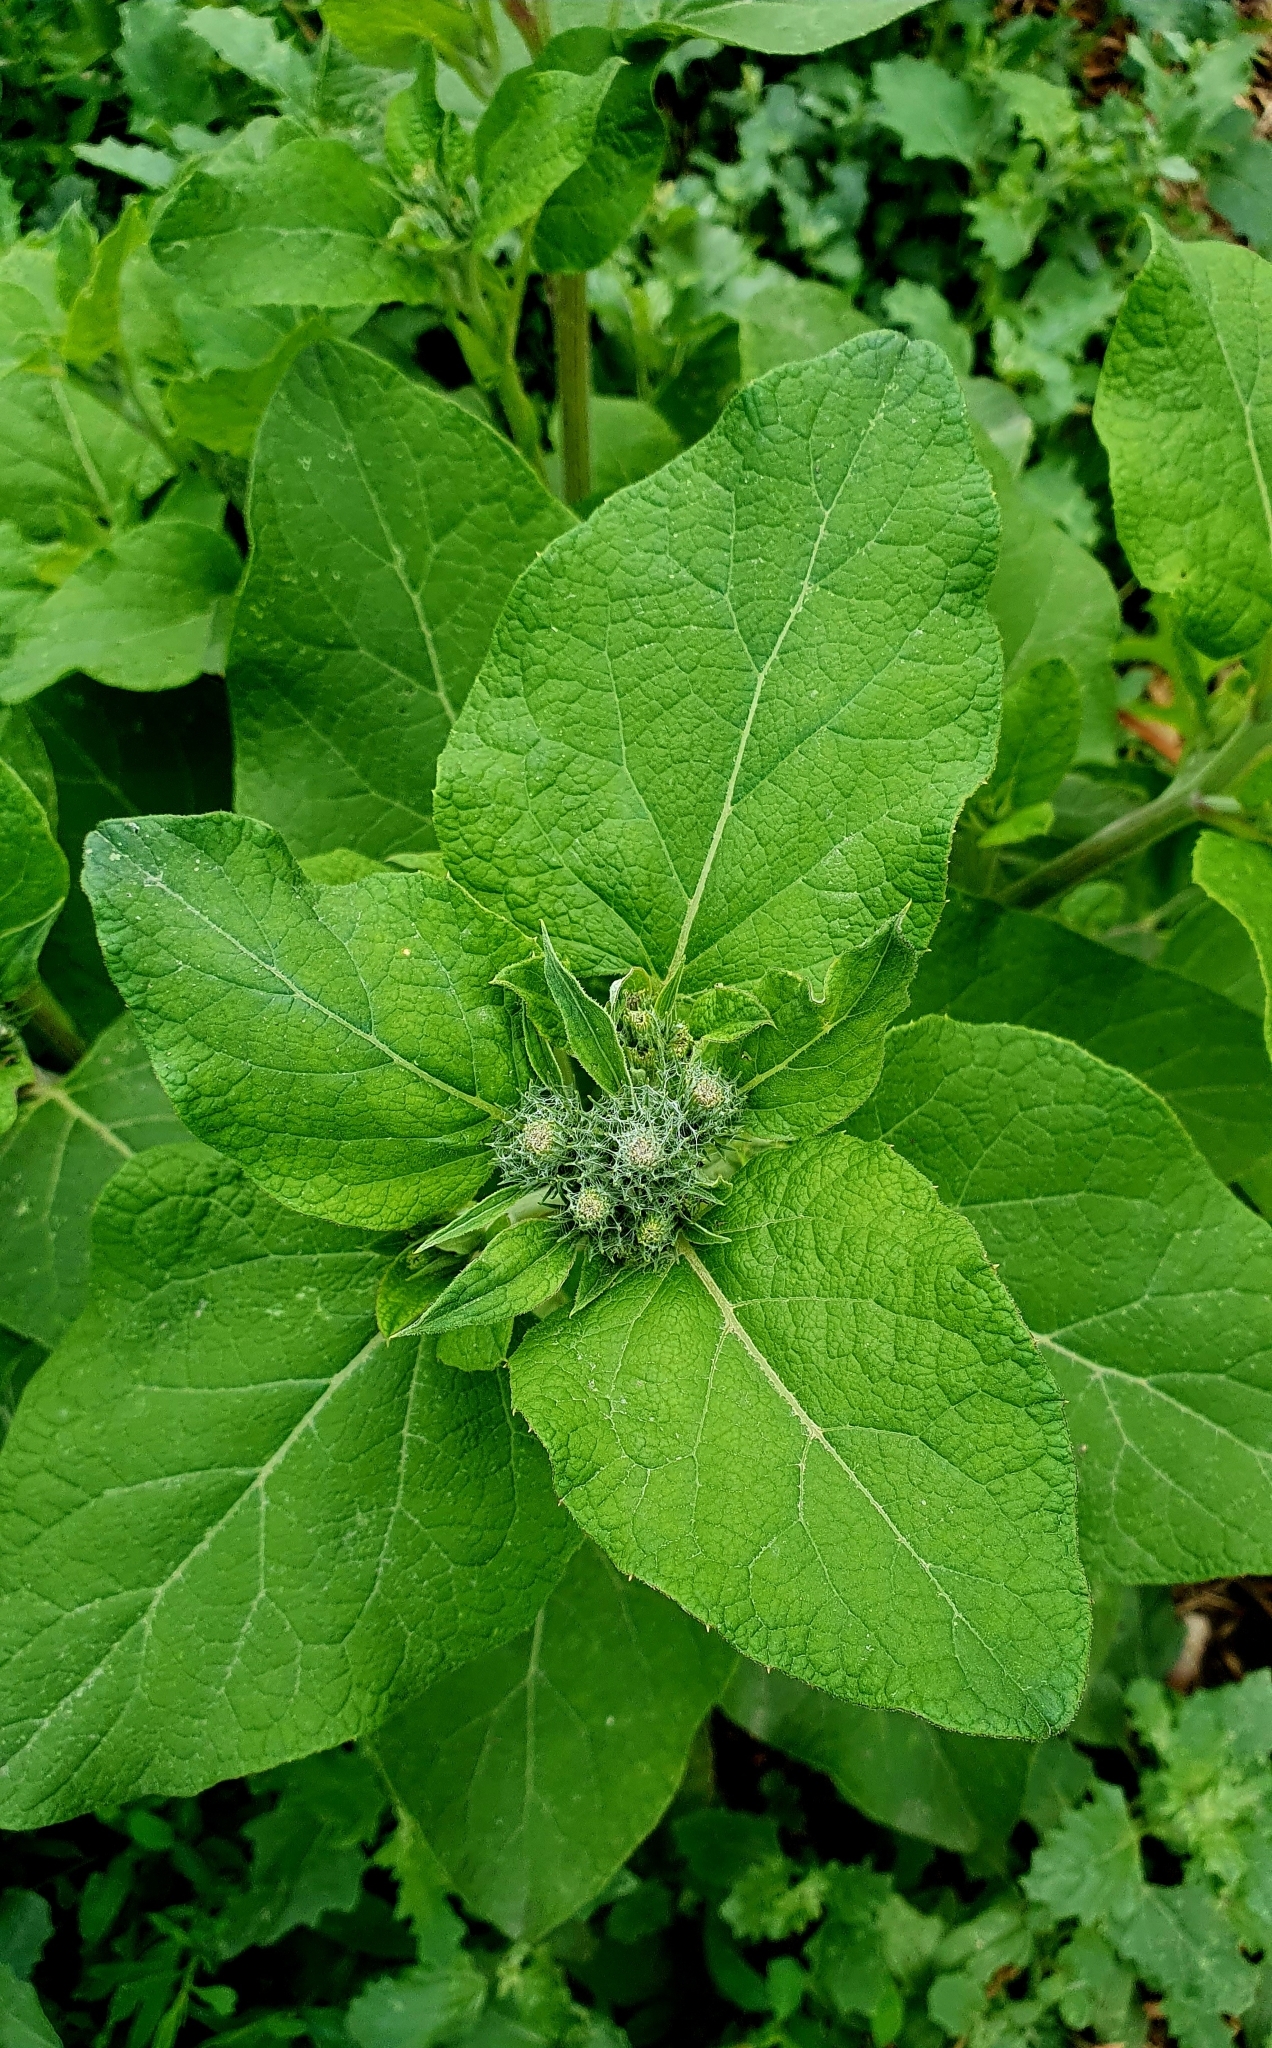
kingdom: Plantae
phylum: Tracheophyta
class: Magnoliopsida
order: Asterales
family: Asteraceae
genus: Arctium
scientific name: Arctium tomentosum
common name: Woolly burdock
